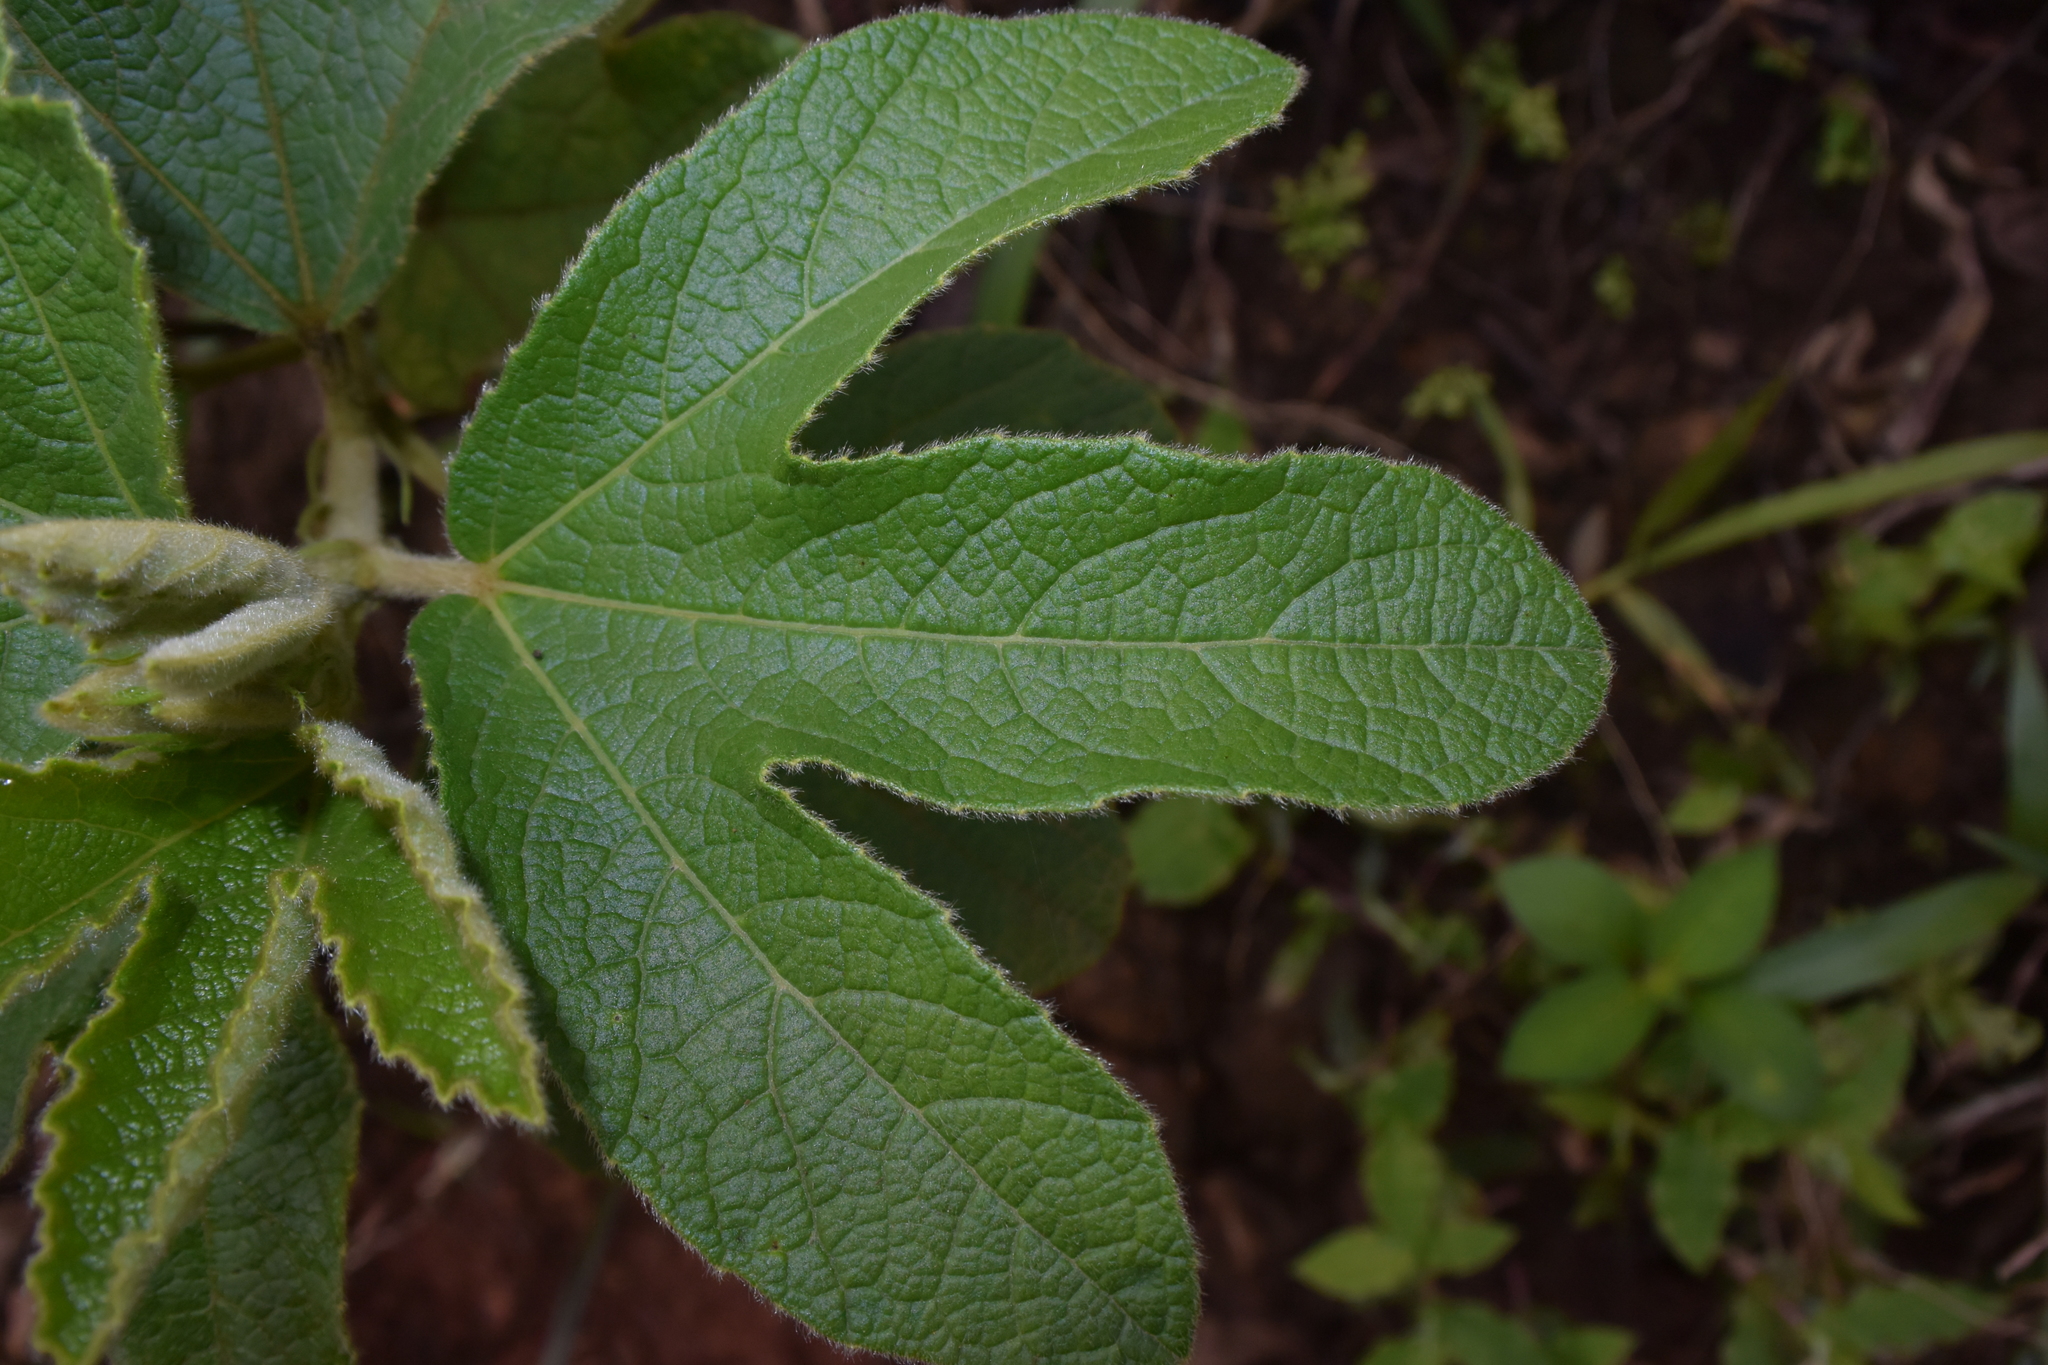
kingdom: Plantae
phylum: Tracheophyta
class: Magnoliopsida
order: Malvales
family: Malvaceae
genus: Decaschistia
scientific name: Decaschistia trilobata
